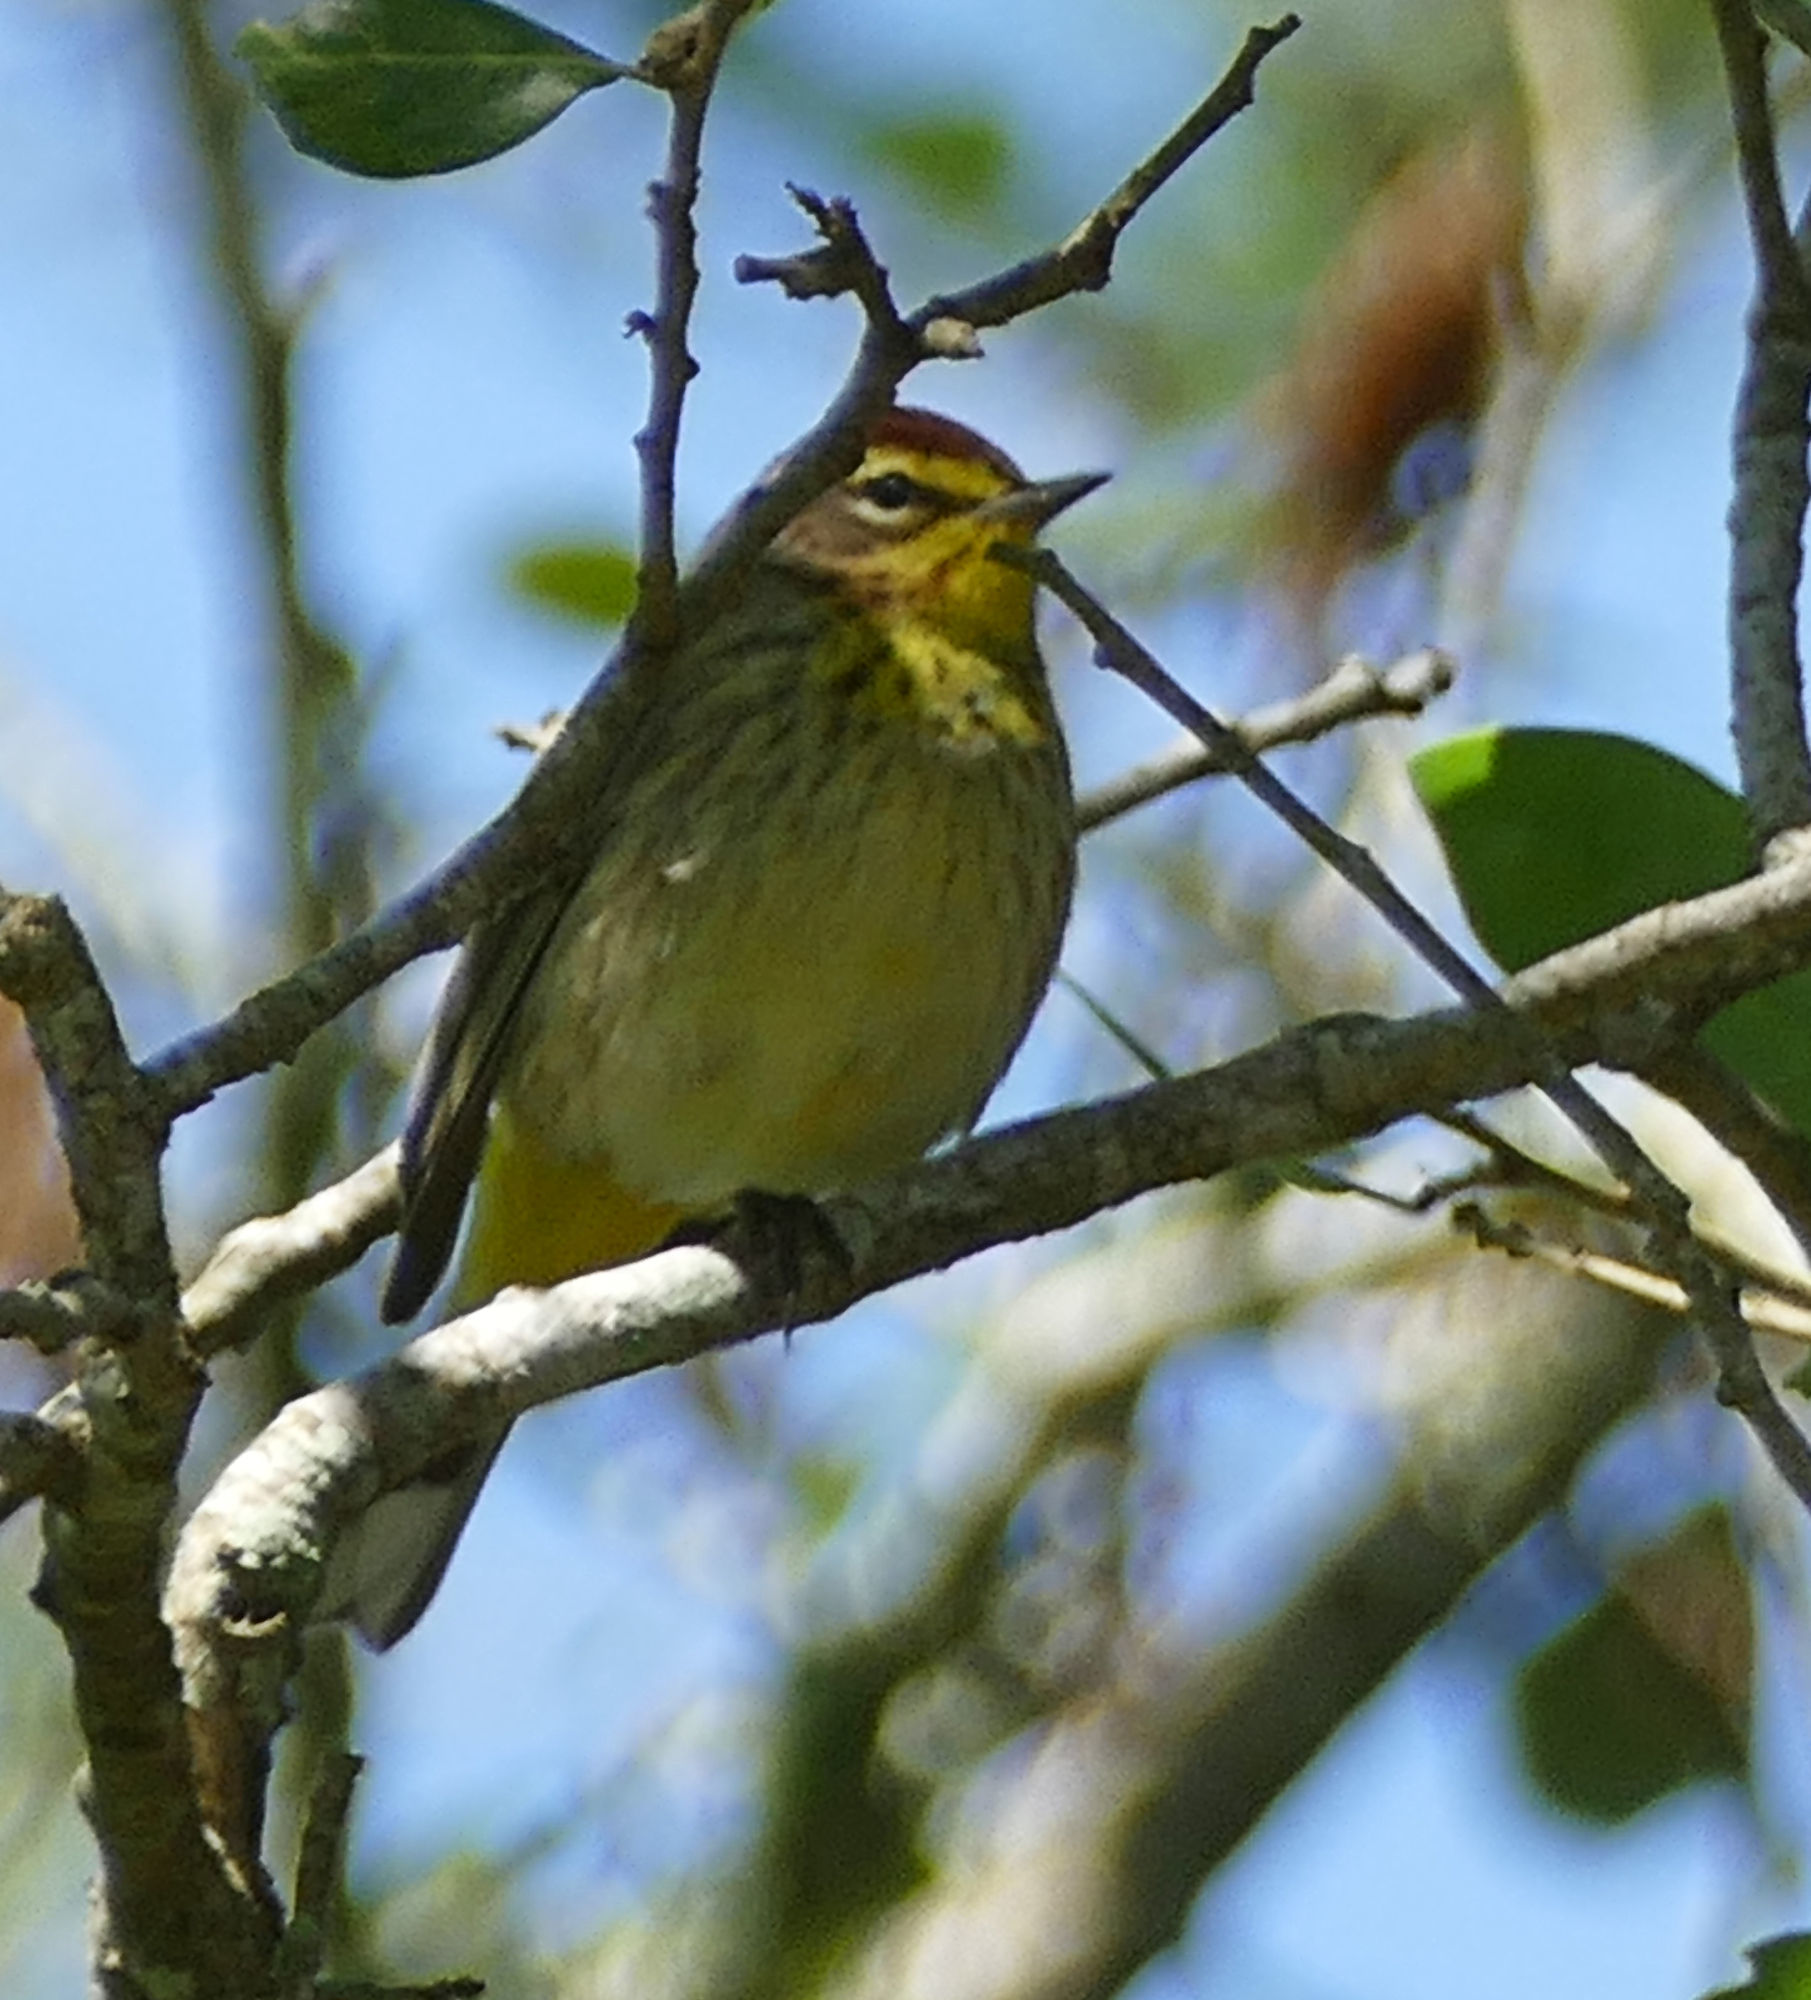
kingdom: Animalia
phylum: Chordata
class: Aves
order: Passeriformes
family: Parulidae
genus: Setophaga
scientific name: Setophaga palmarum
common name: Palm warbler
